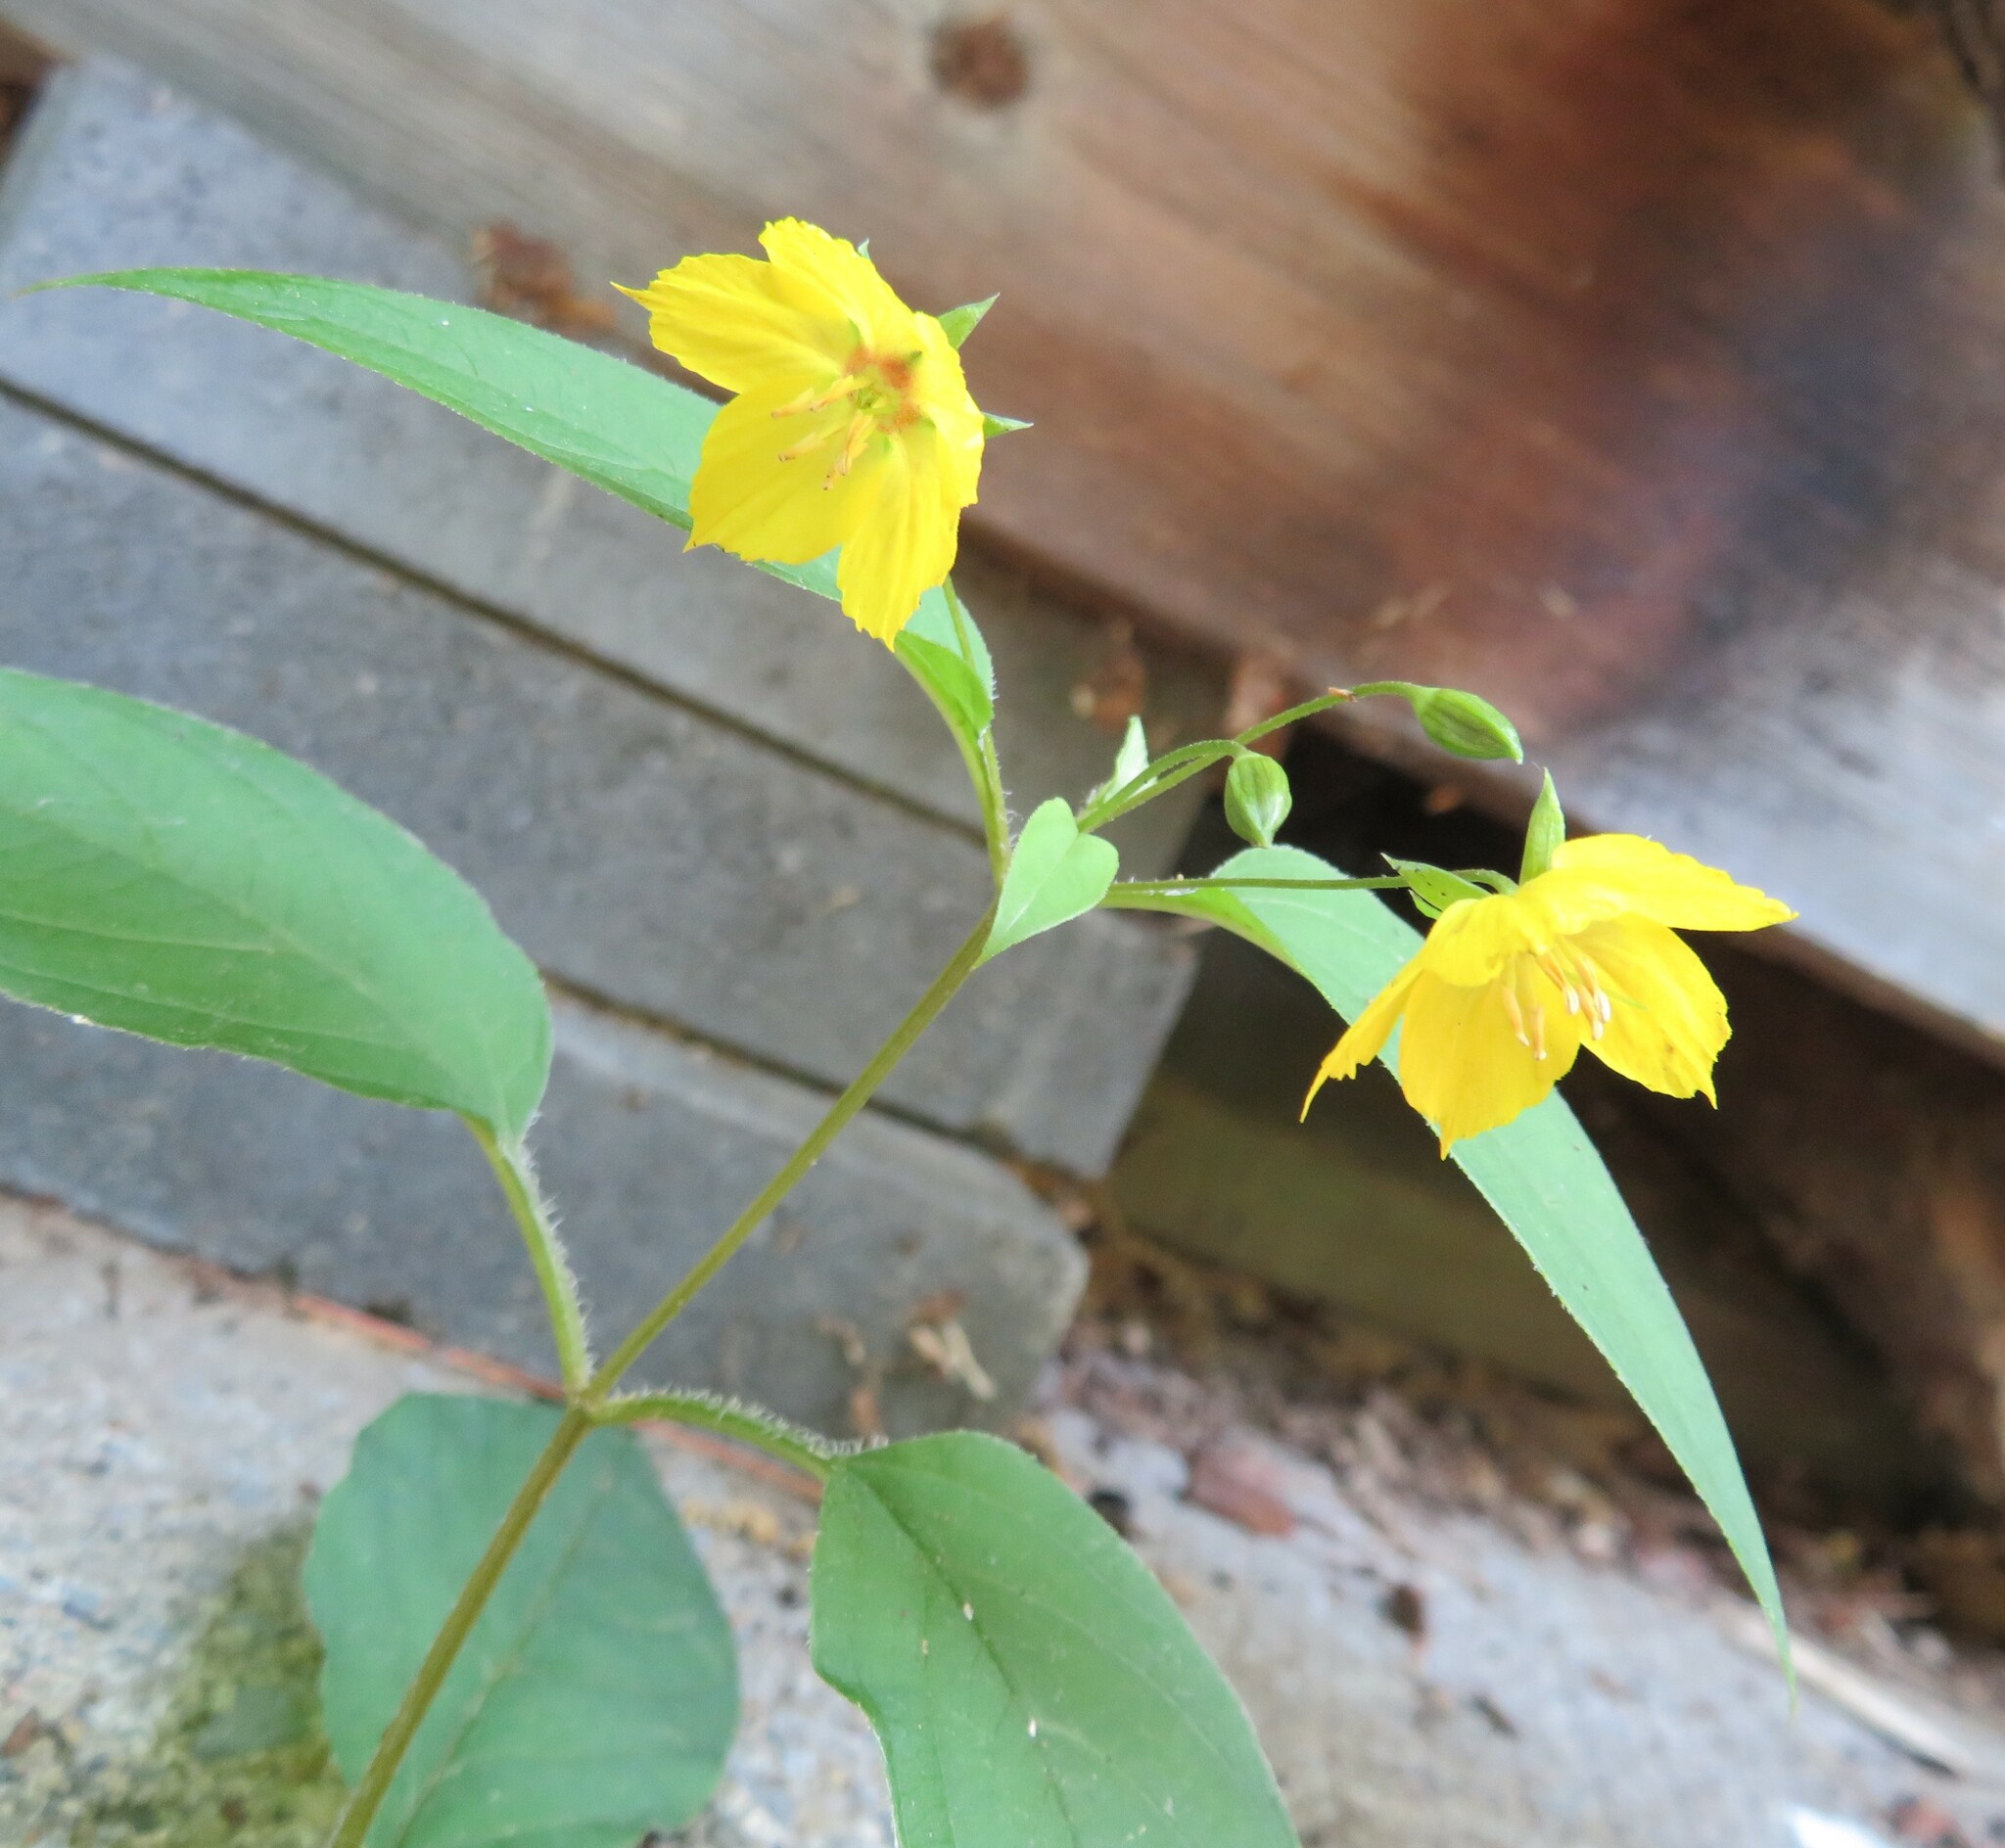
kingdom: Plantae
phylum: Tracheophyta
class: Magnoliopsida
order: Ericales
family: Primulaceae
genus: Lysimachia
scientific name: Lysimachia ciliata
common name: Fringed loosestrife
